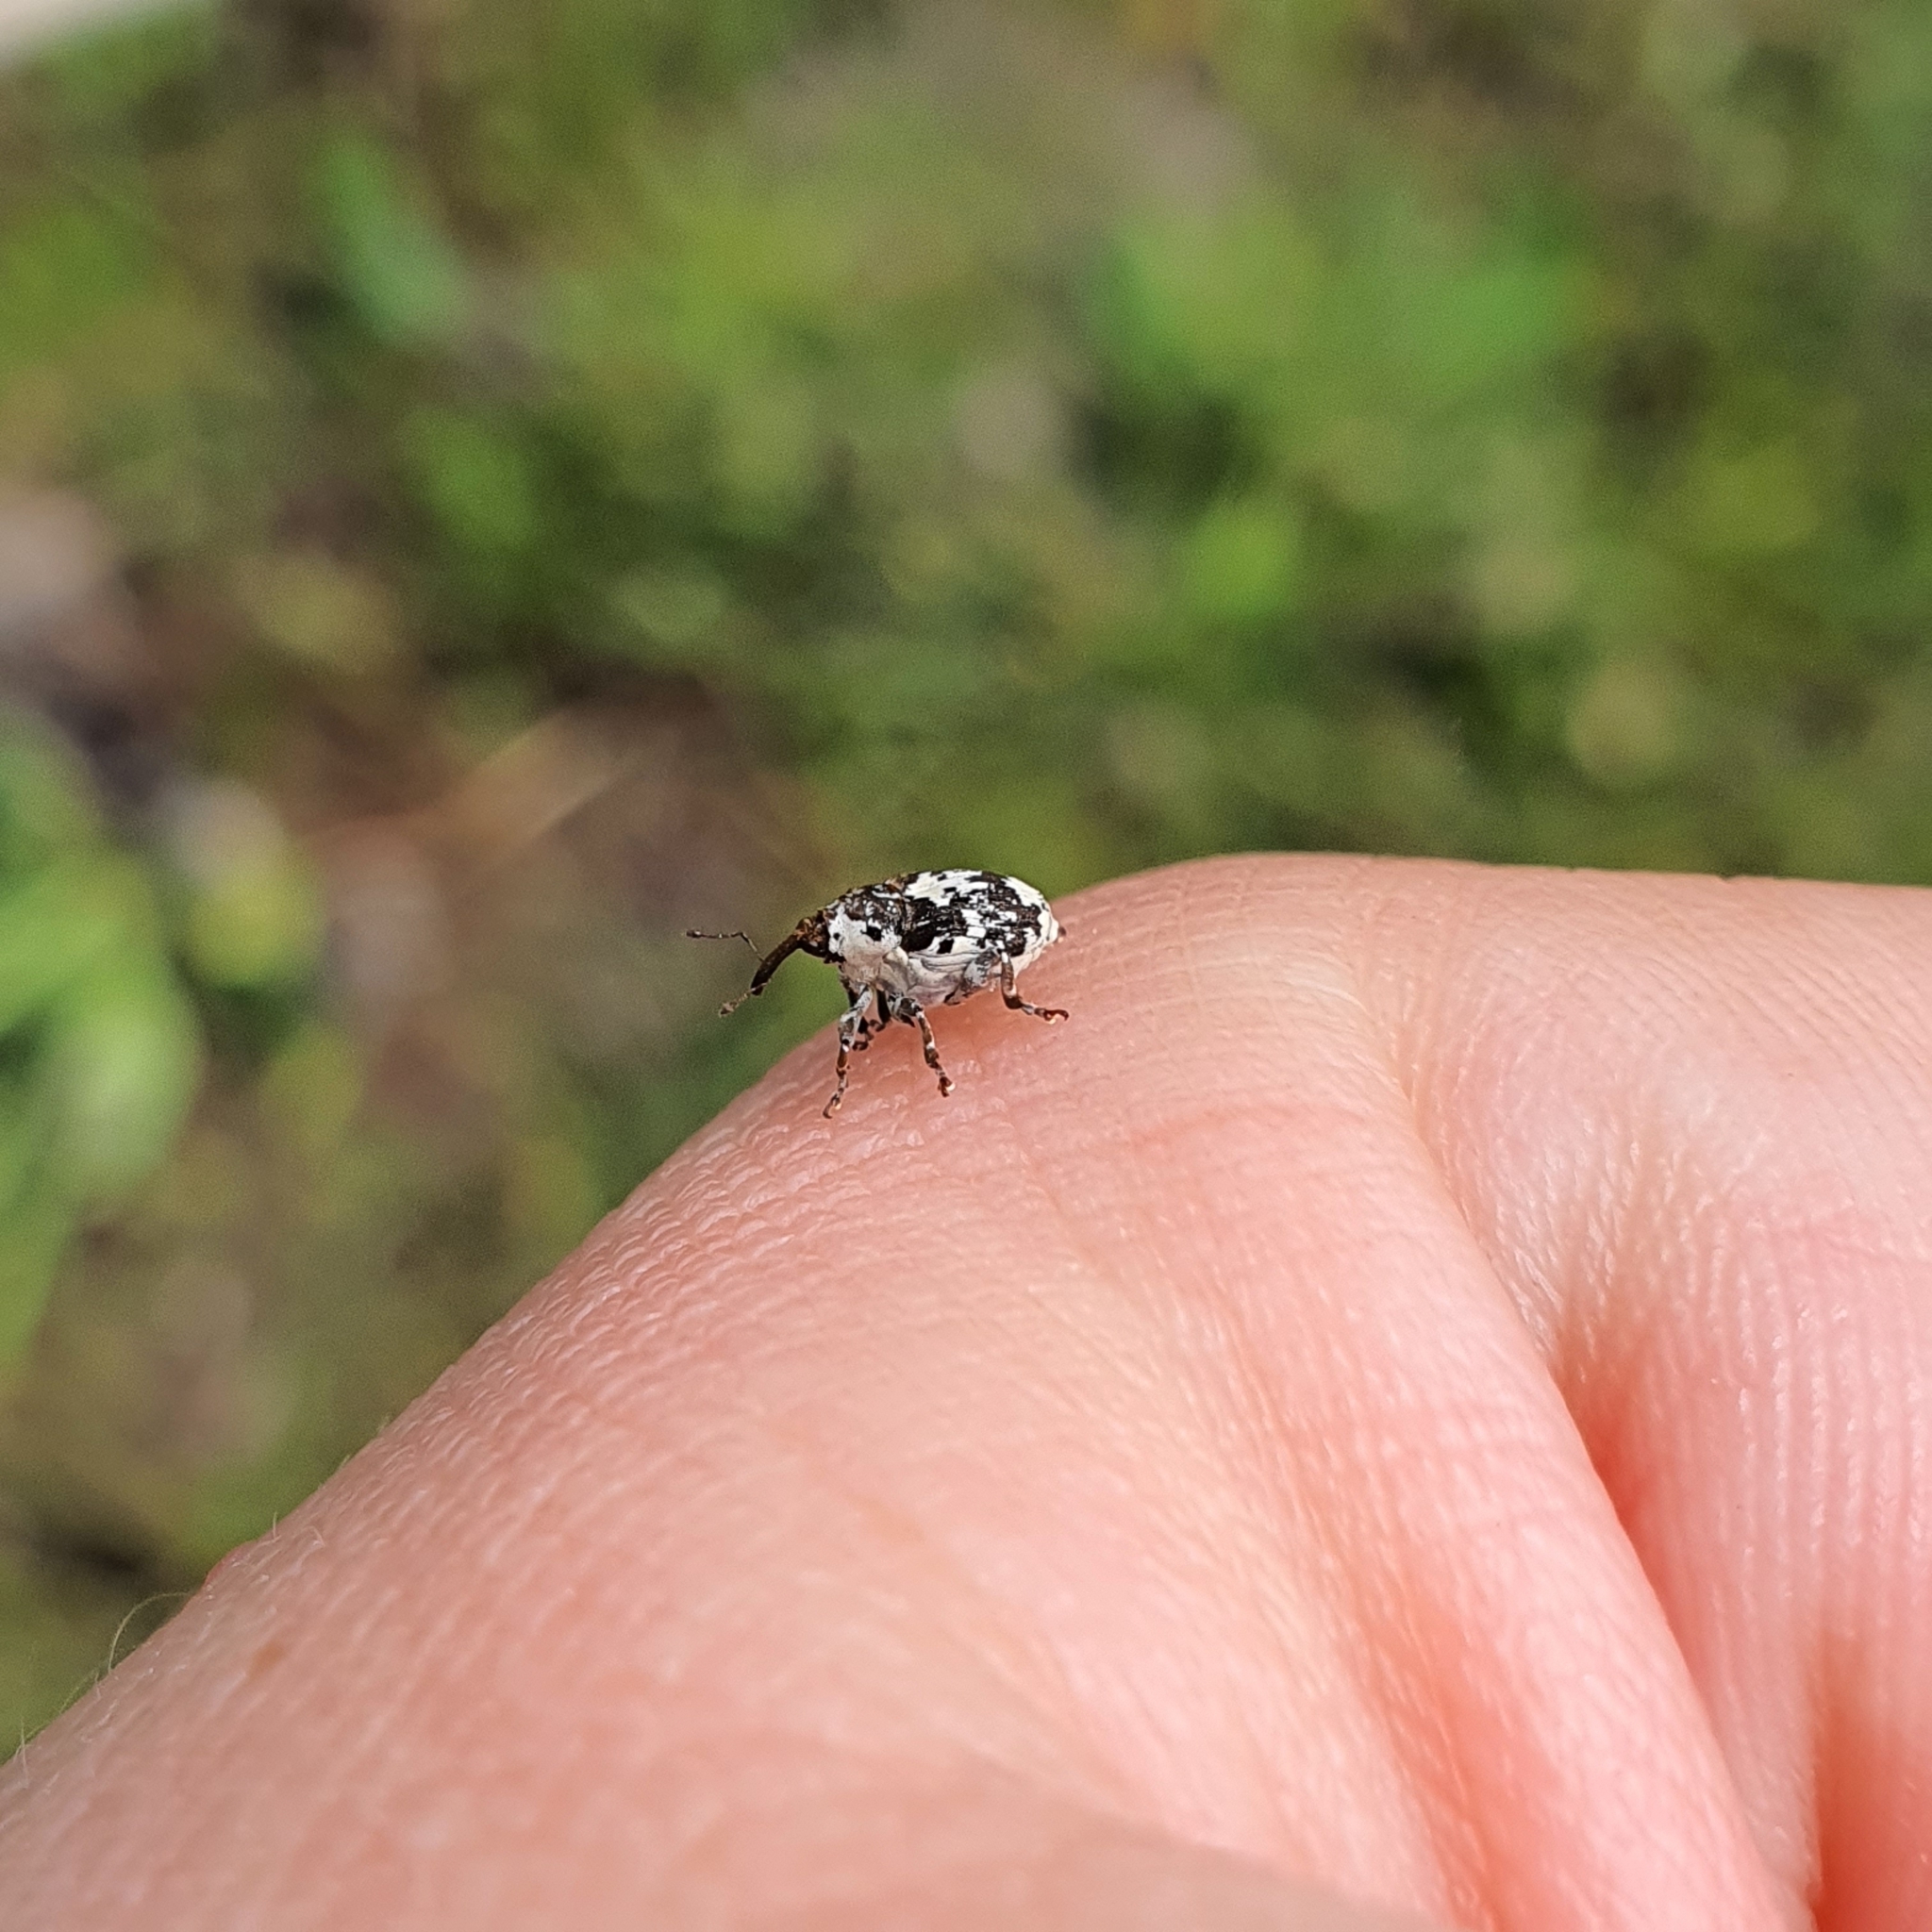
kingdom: Animalia
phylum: Arthropoda
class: Insecta
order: Coleoptera
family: Curculionidae
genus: Ceuthorrhynchus
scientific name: Ceuthorrhynchus larvatus
